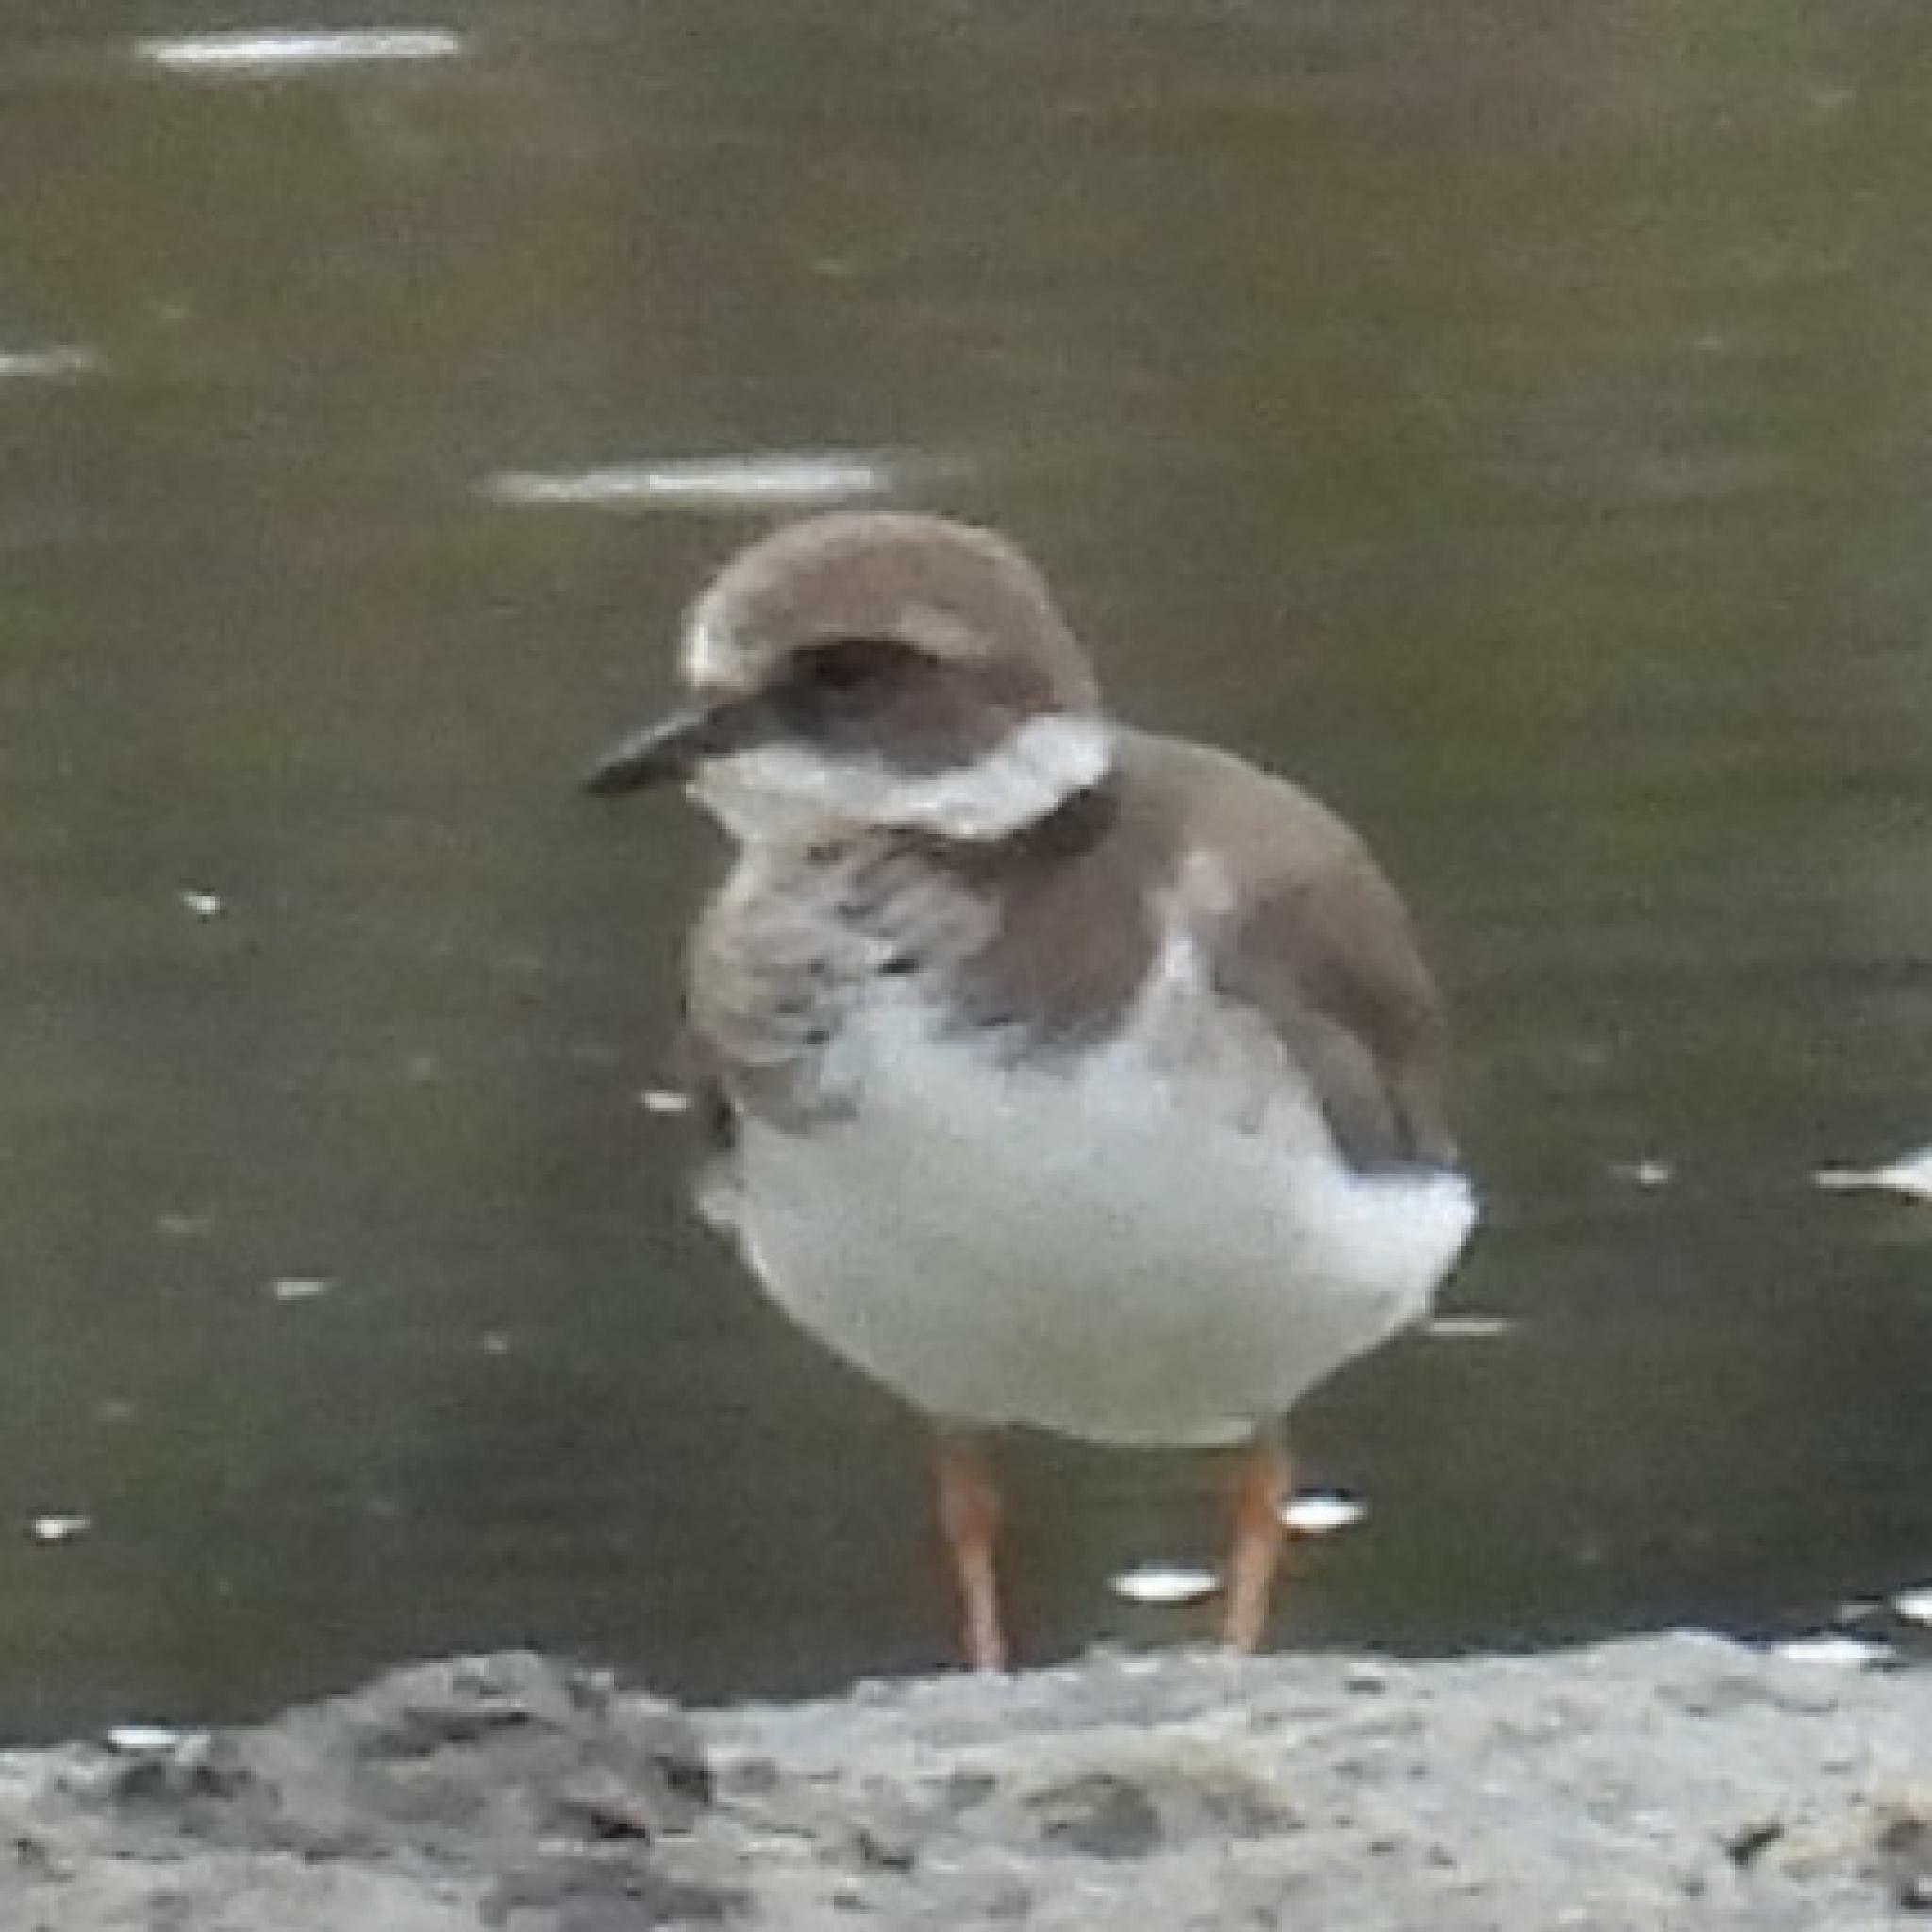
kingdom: Animalia
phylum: Chordata
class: Aves
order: Charadriiformes
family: Charadriidae
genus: Charadrius
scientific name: Charadrius hiaticula
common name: Common ringed plover
